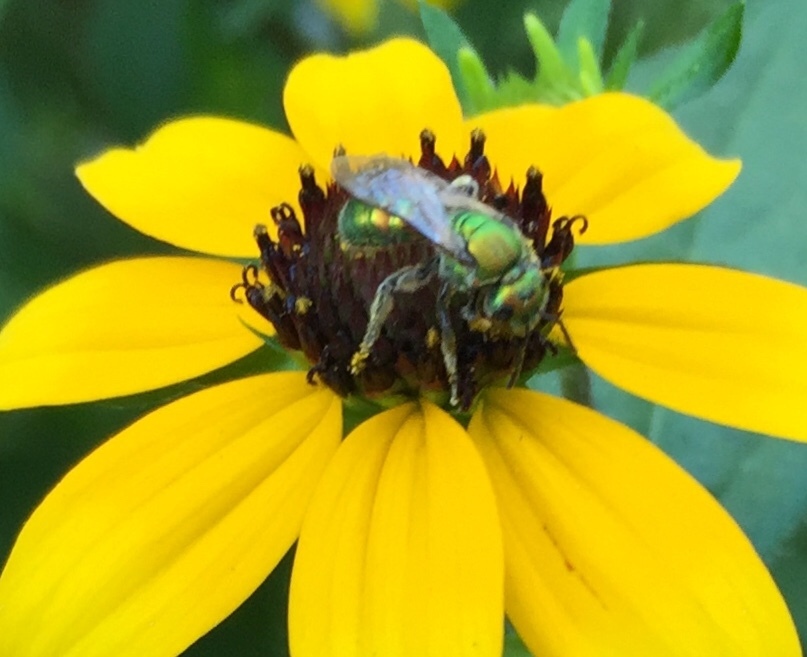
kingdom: Animalia
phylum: Arthropoda
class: Insecta
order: Hymenoptera
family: Halictidae
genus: Augochlora
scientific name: Augochlora pura
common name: Pure green sweat bee
